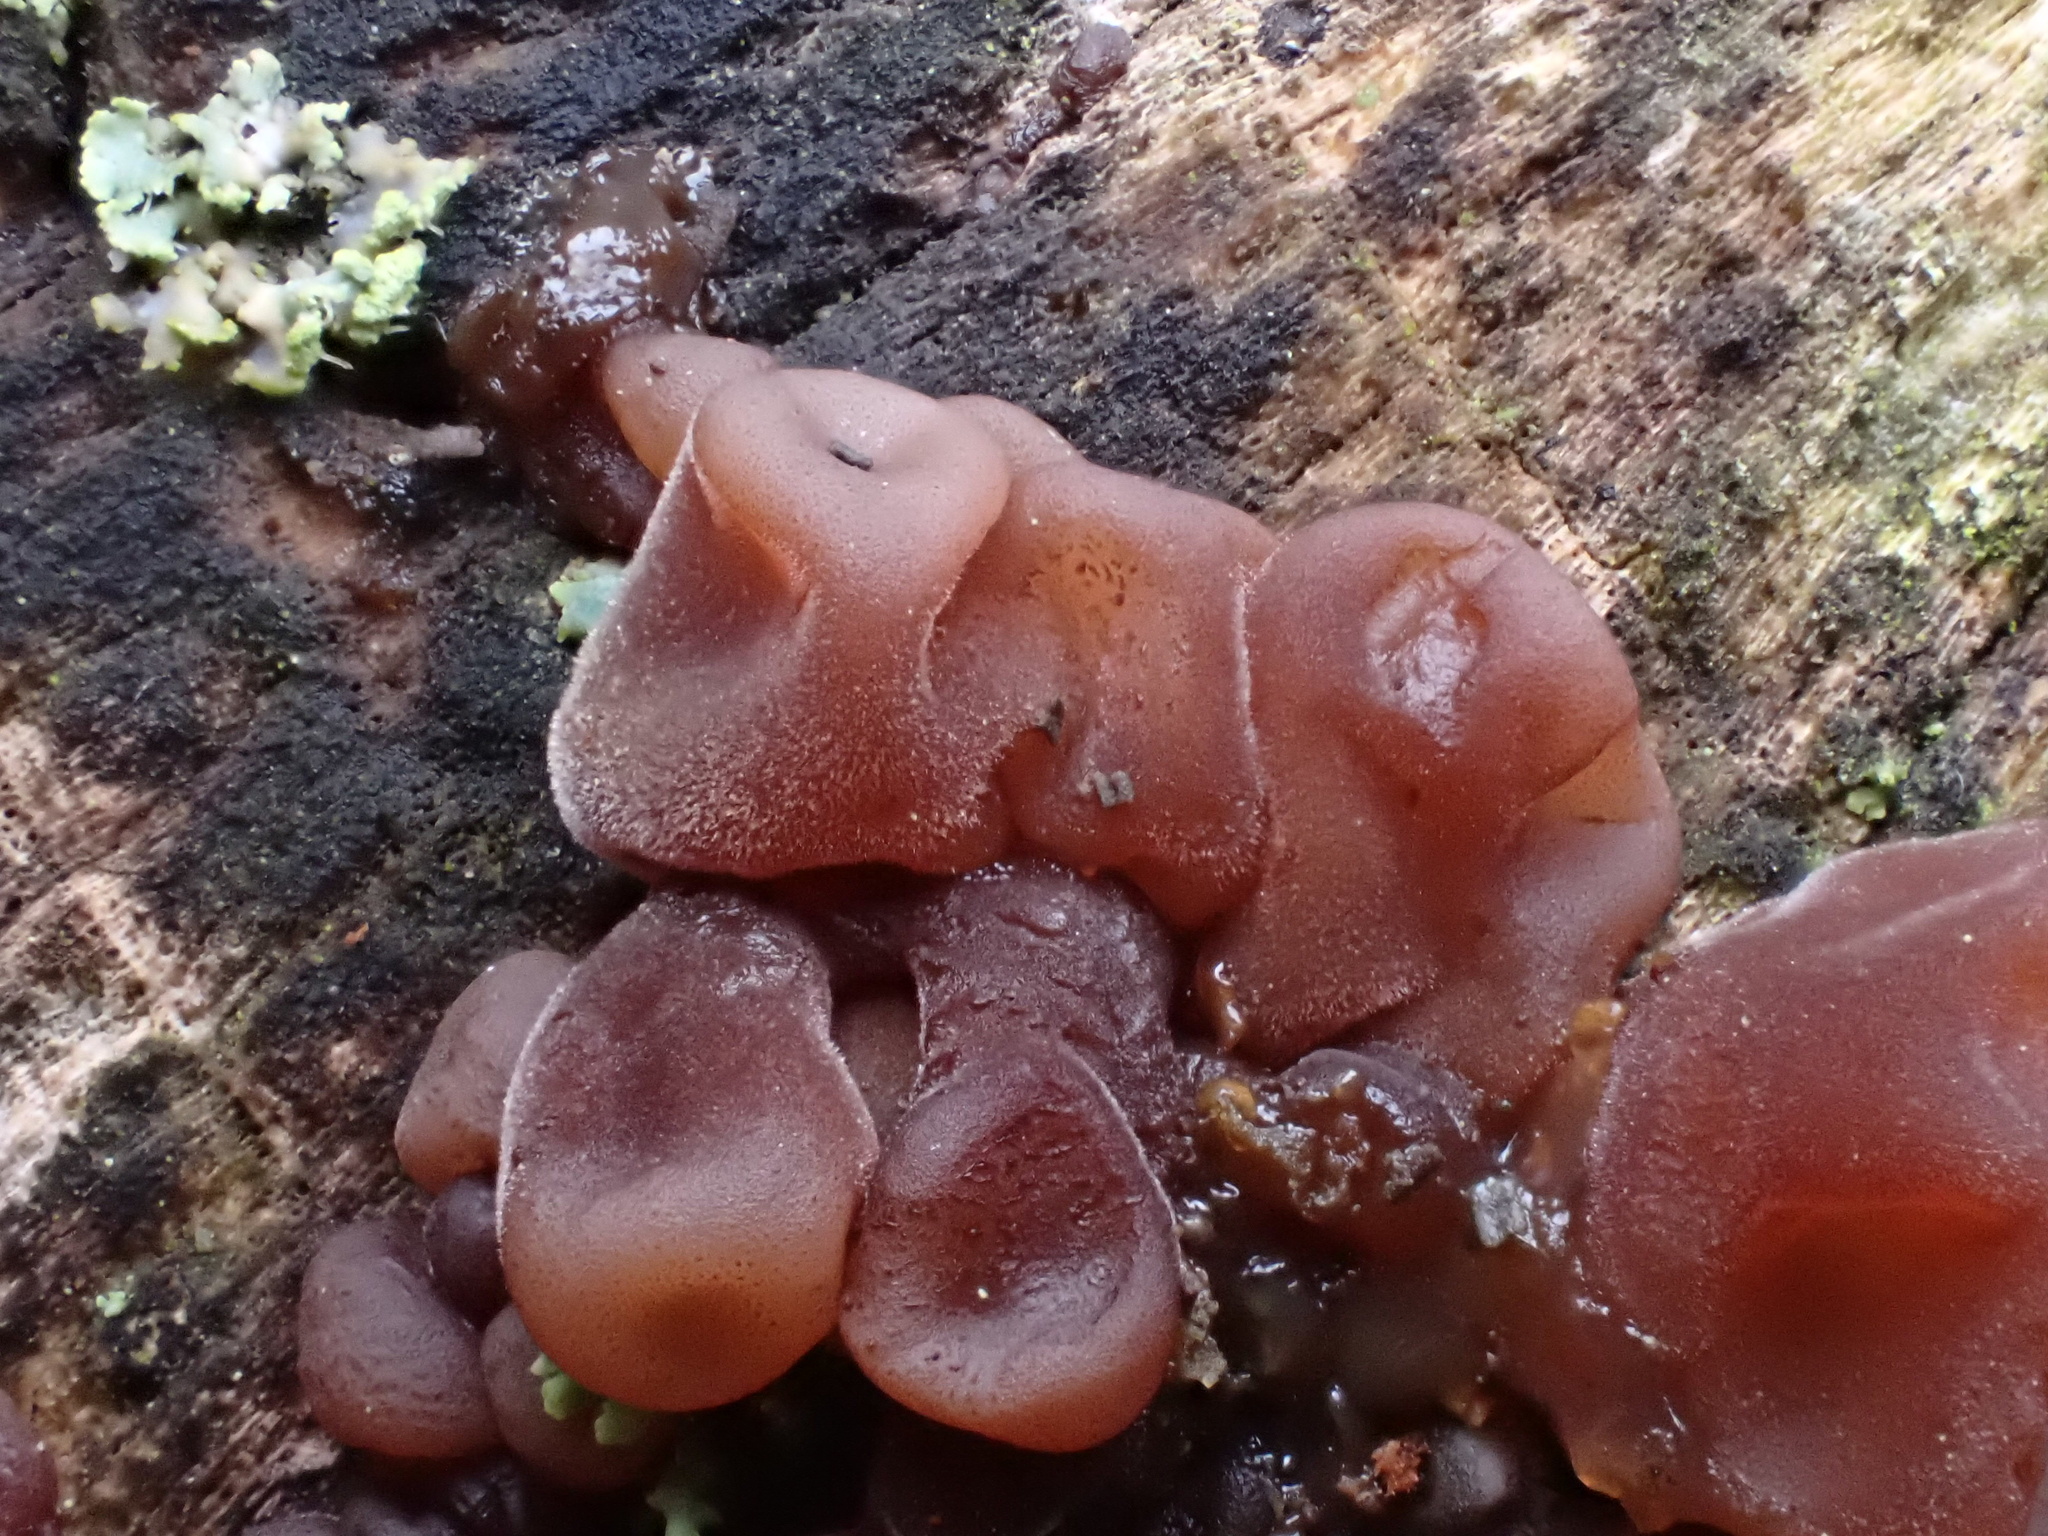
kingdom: Fungi
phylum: Basidiomycota
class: Agaricomycetes
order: Auriculariales
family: Auriculariaceae
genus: Auricularia
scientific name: Auricularia auricula-judae
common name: Jelly ear
